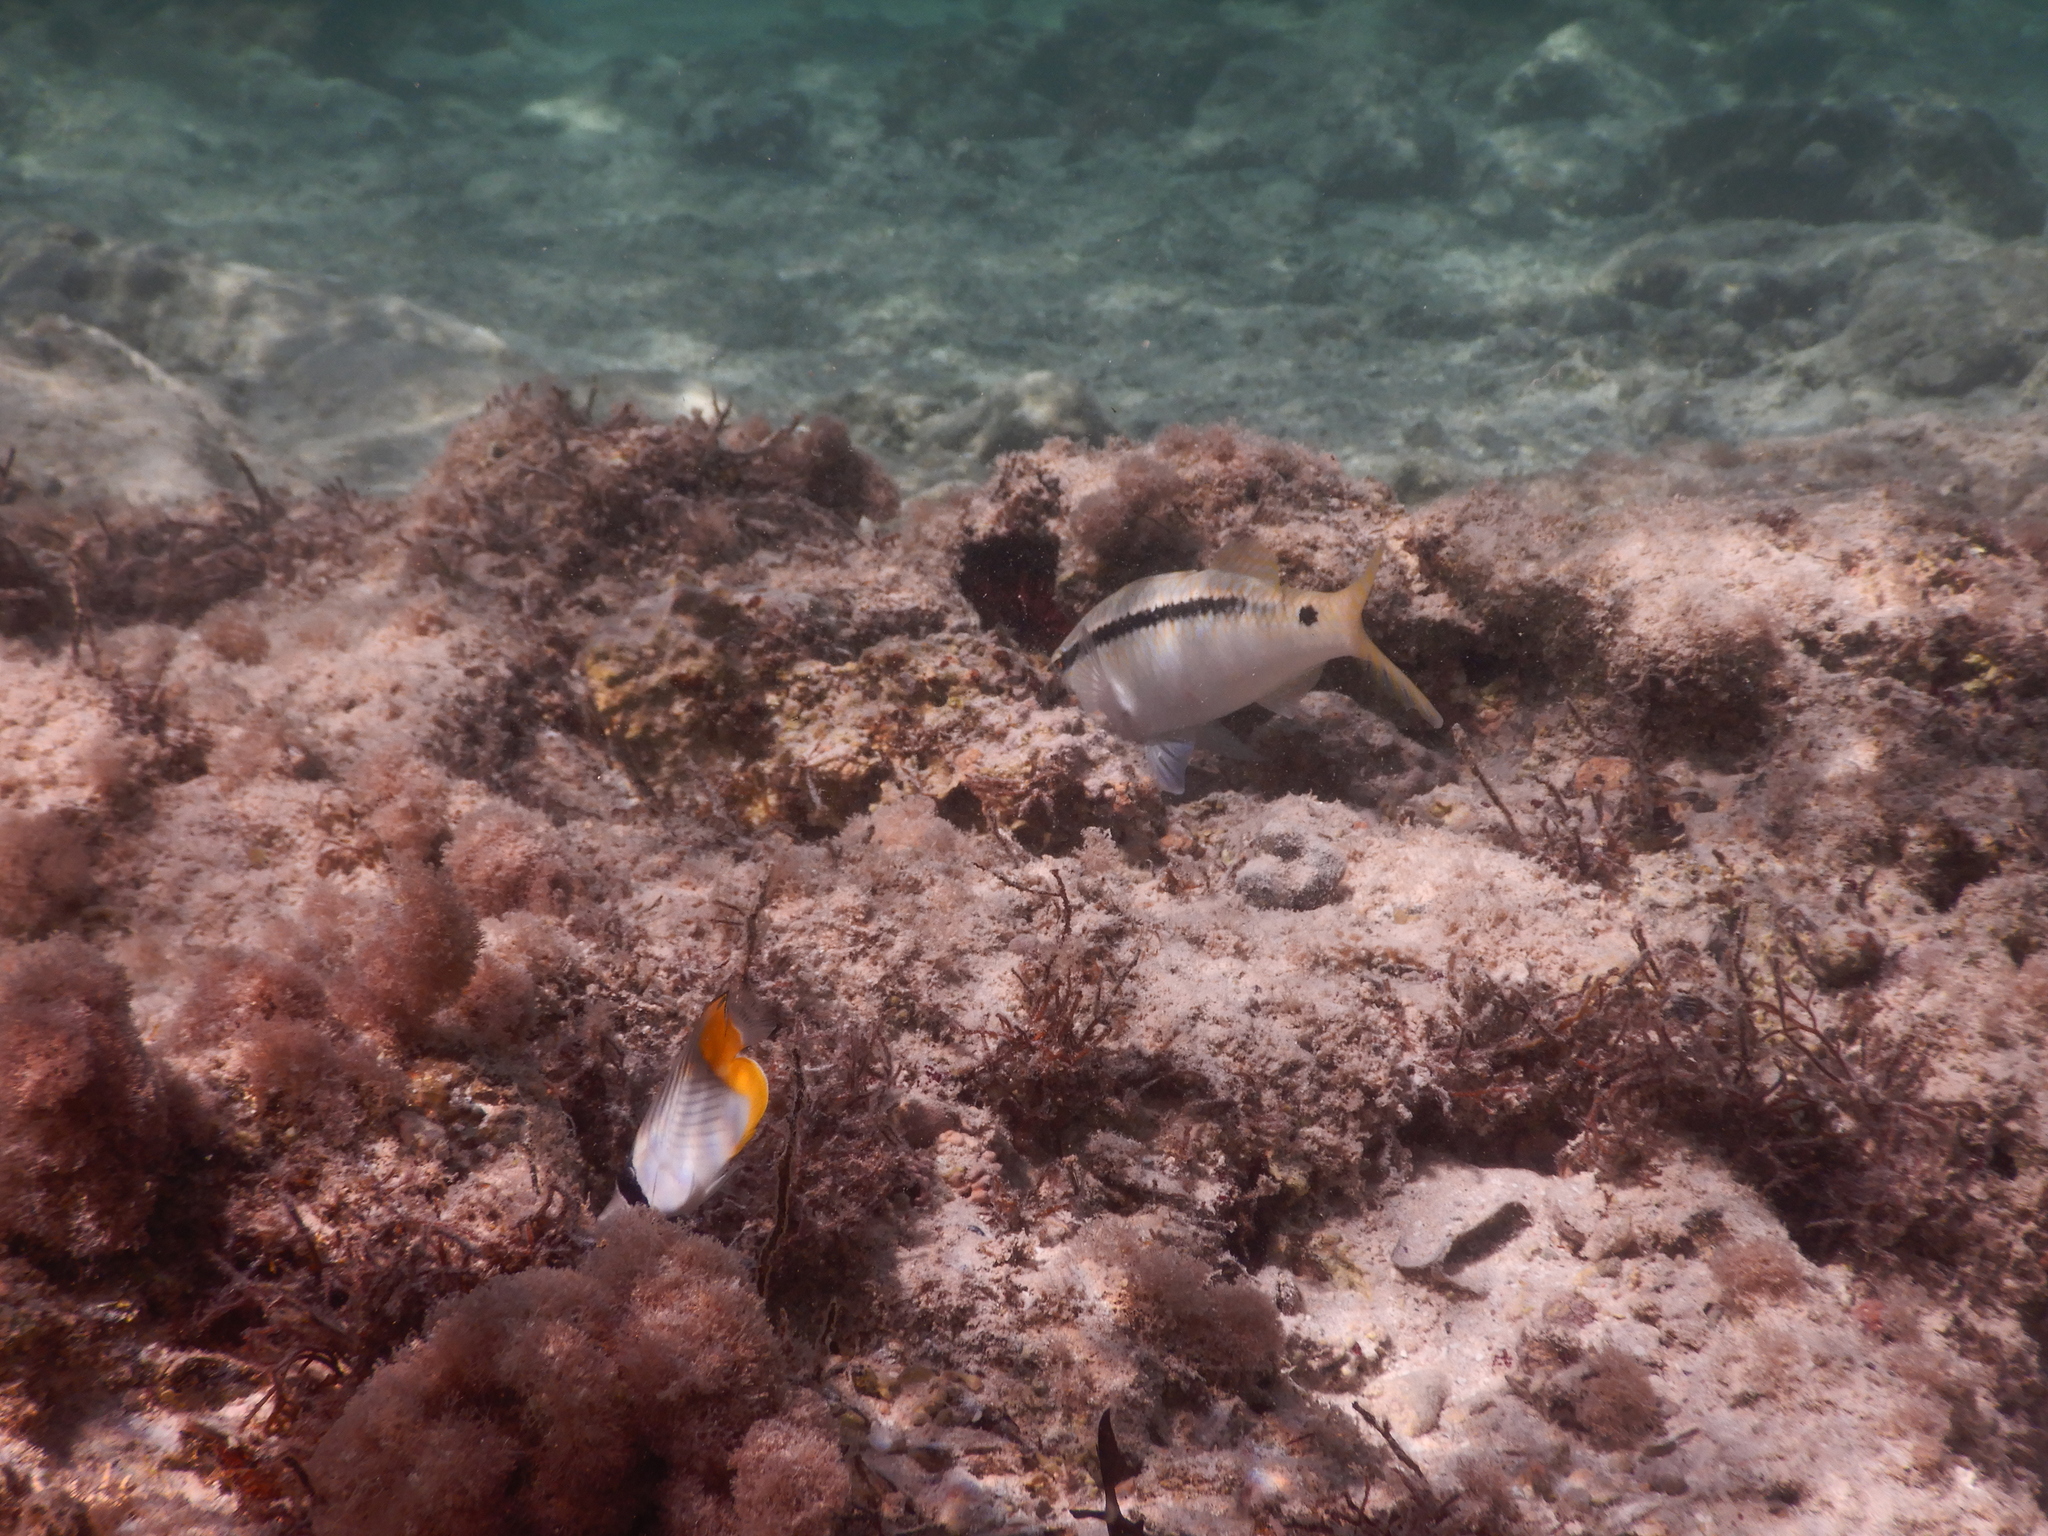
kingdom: Animalia
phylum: Chordata
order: Perciformes
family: Mullidae
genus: Parupeneus
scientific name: Parupeneus forsskali
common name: Red sea goatfish
